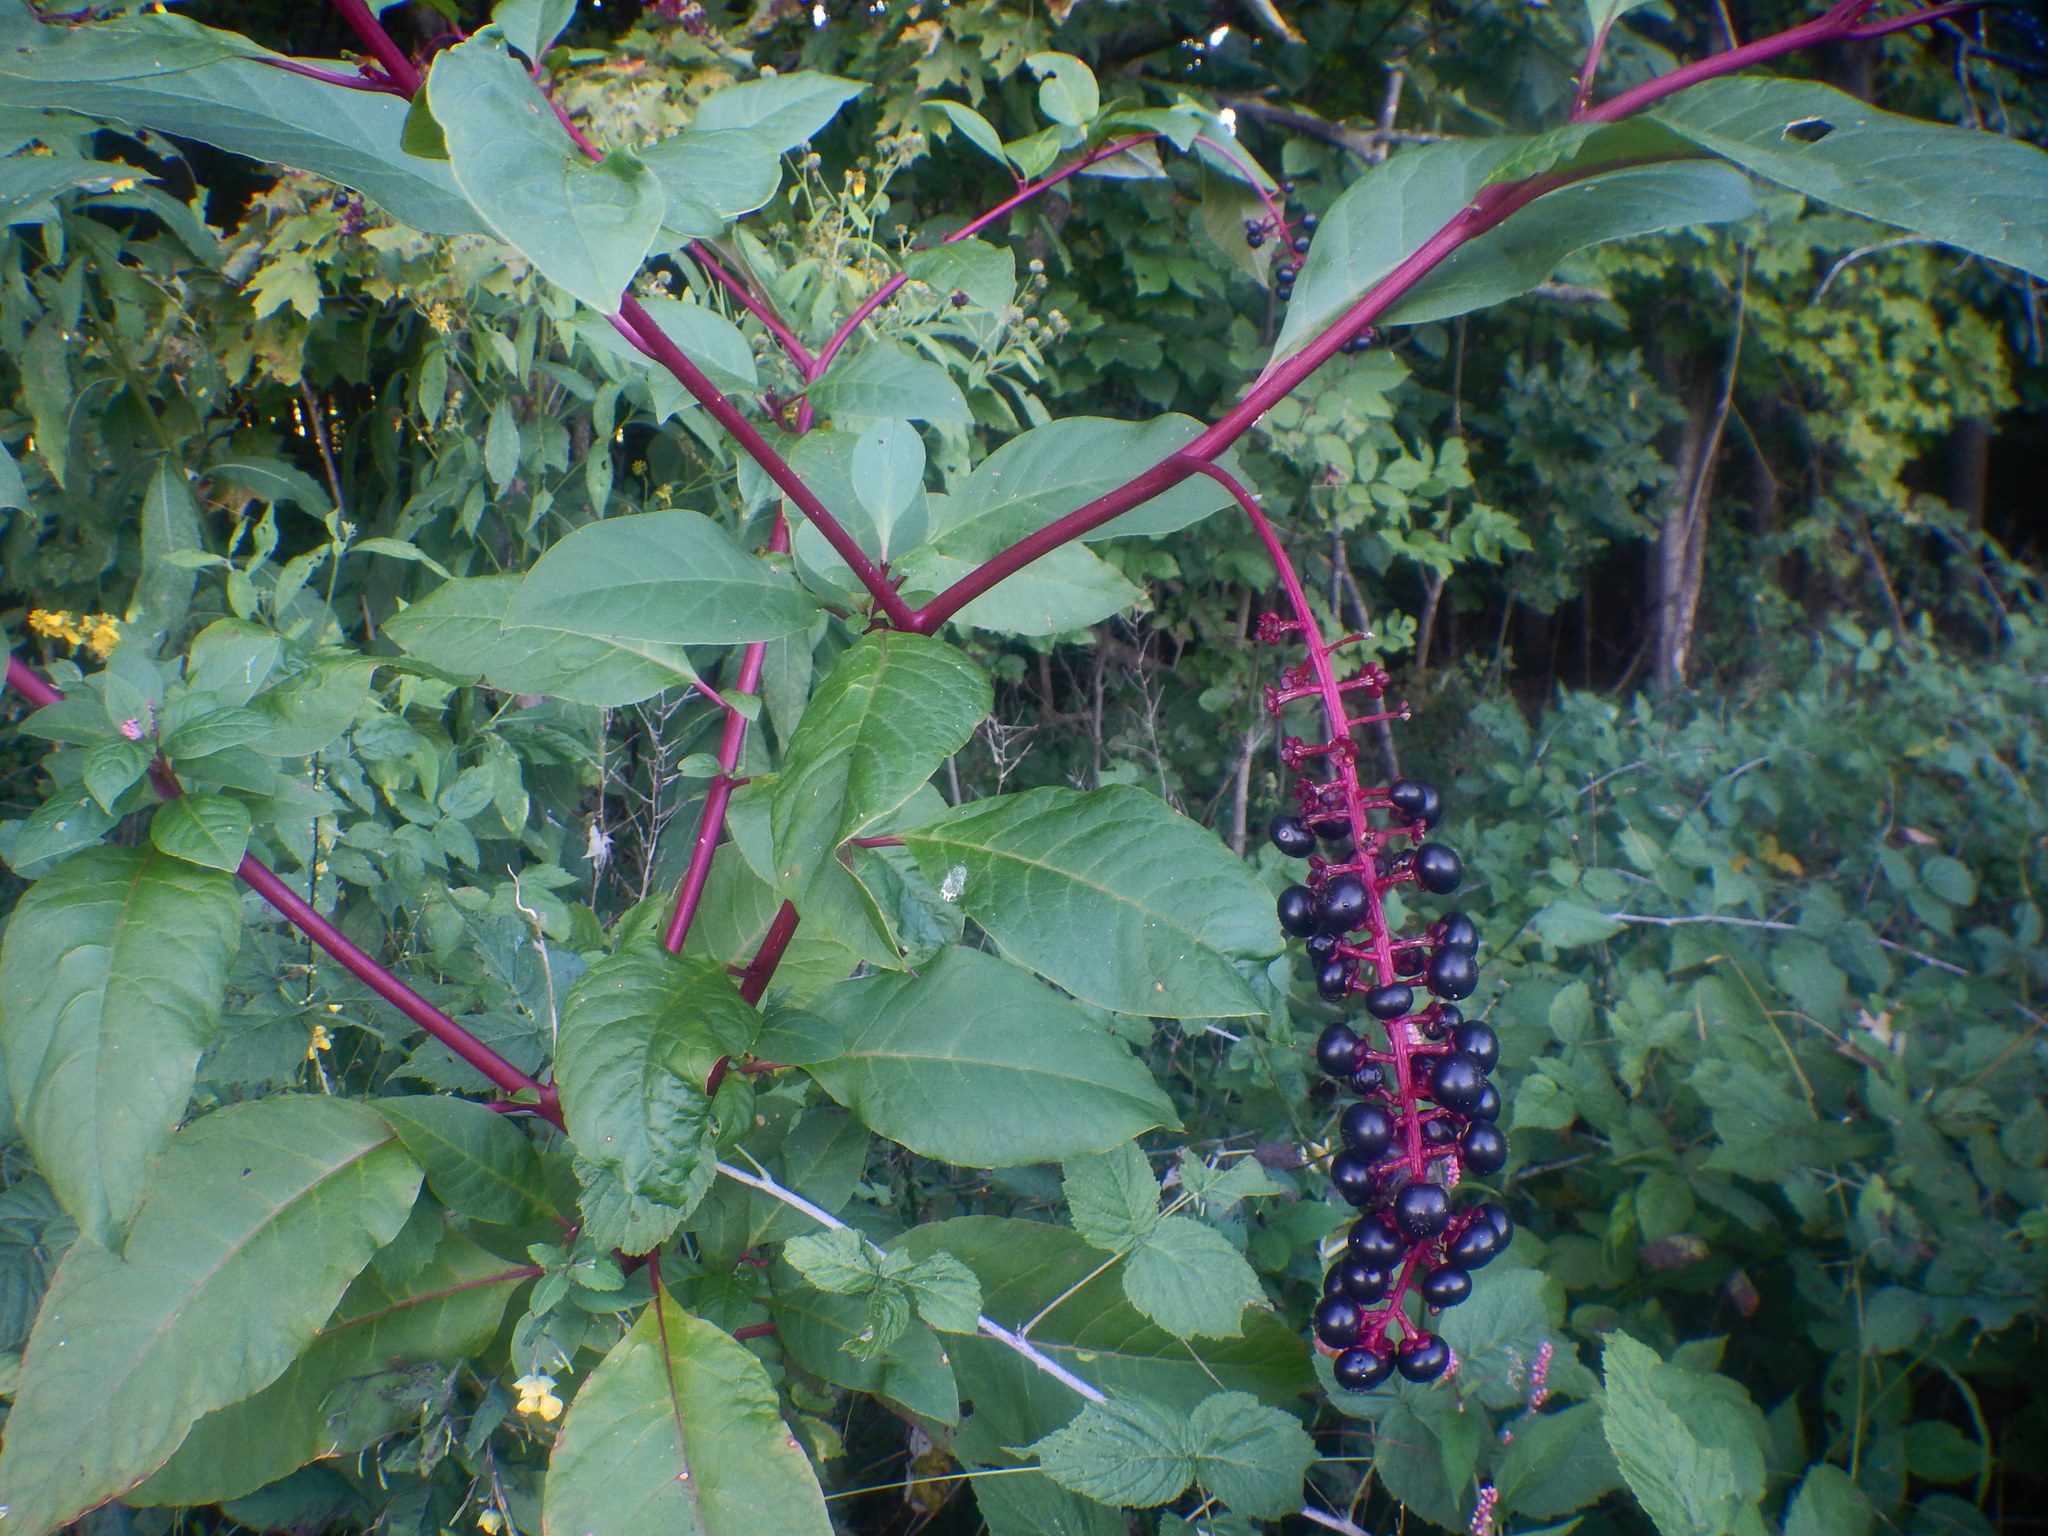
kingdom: Plantae
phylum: Tracheophyta
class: Magnoliopsida
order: Caryophyllales
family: Phytolaccaceae
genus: Phytolacca
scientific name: Phytolacca americana
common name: American pokeweed
